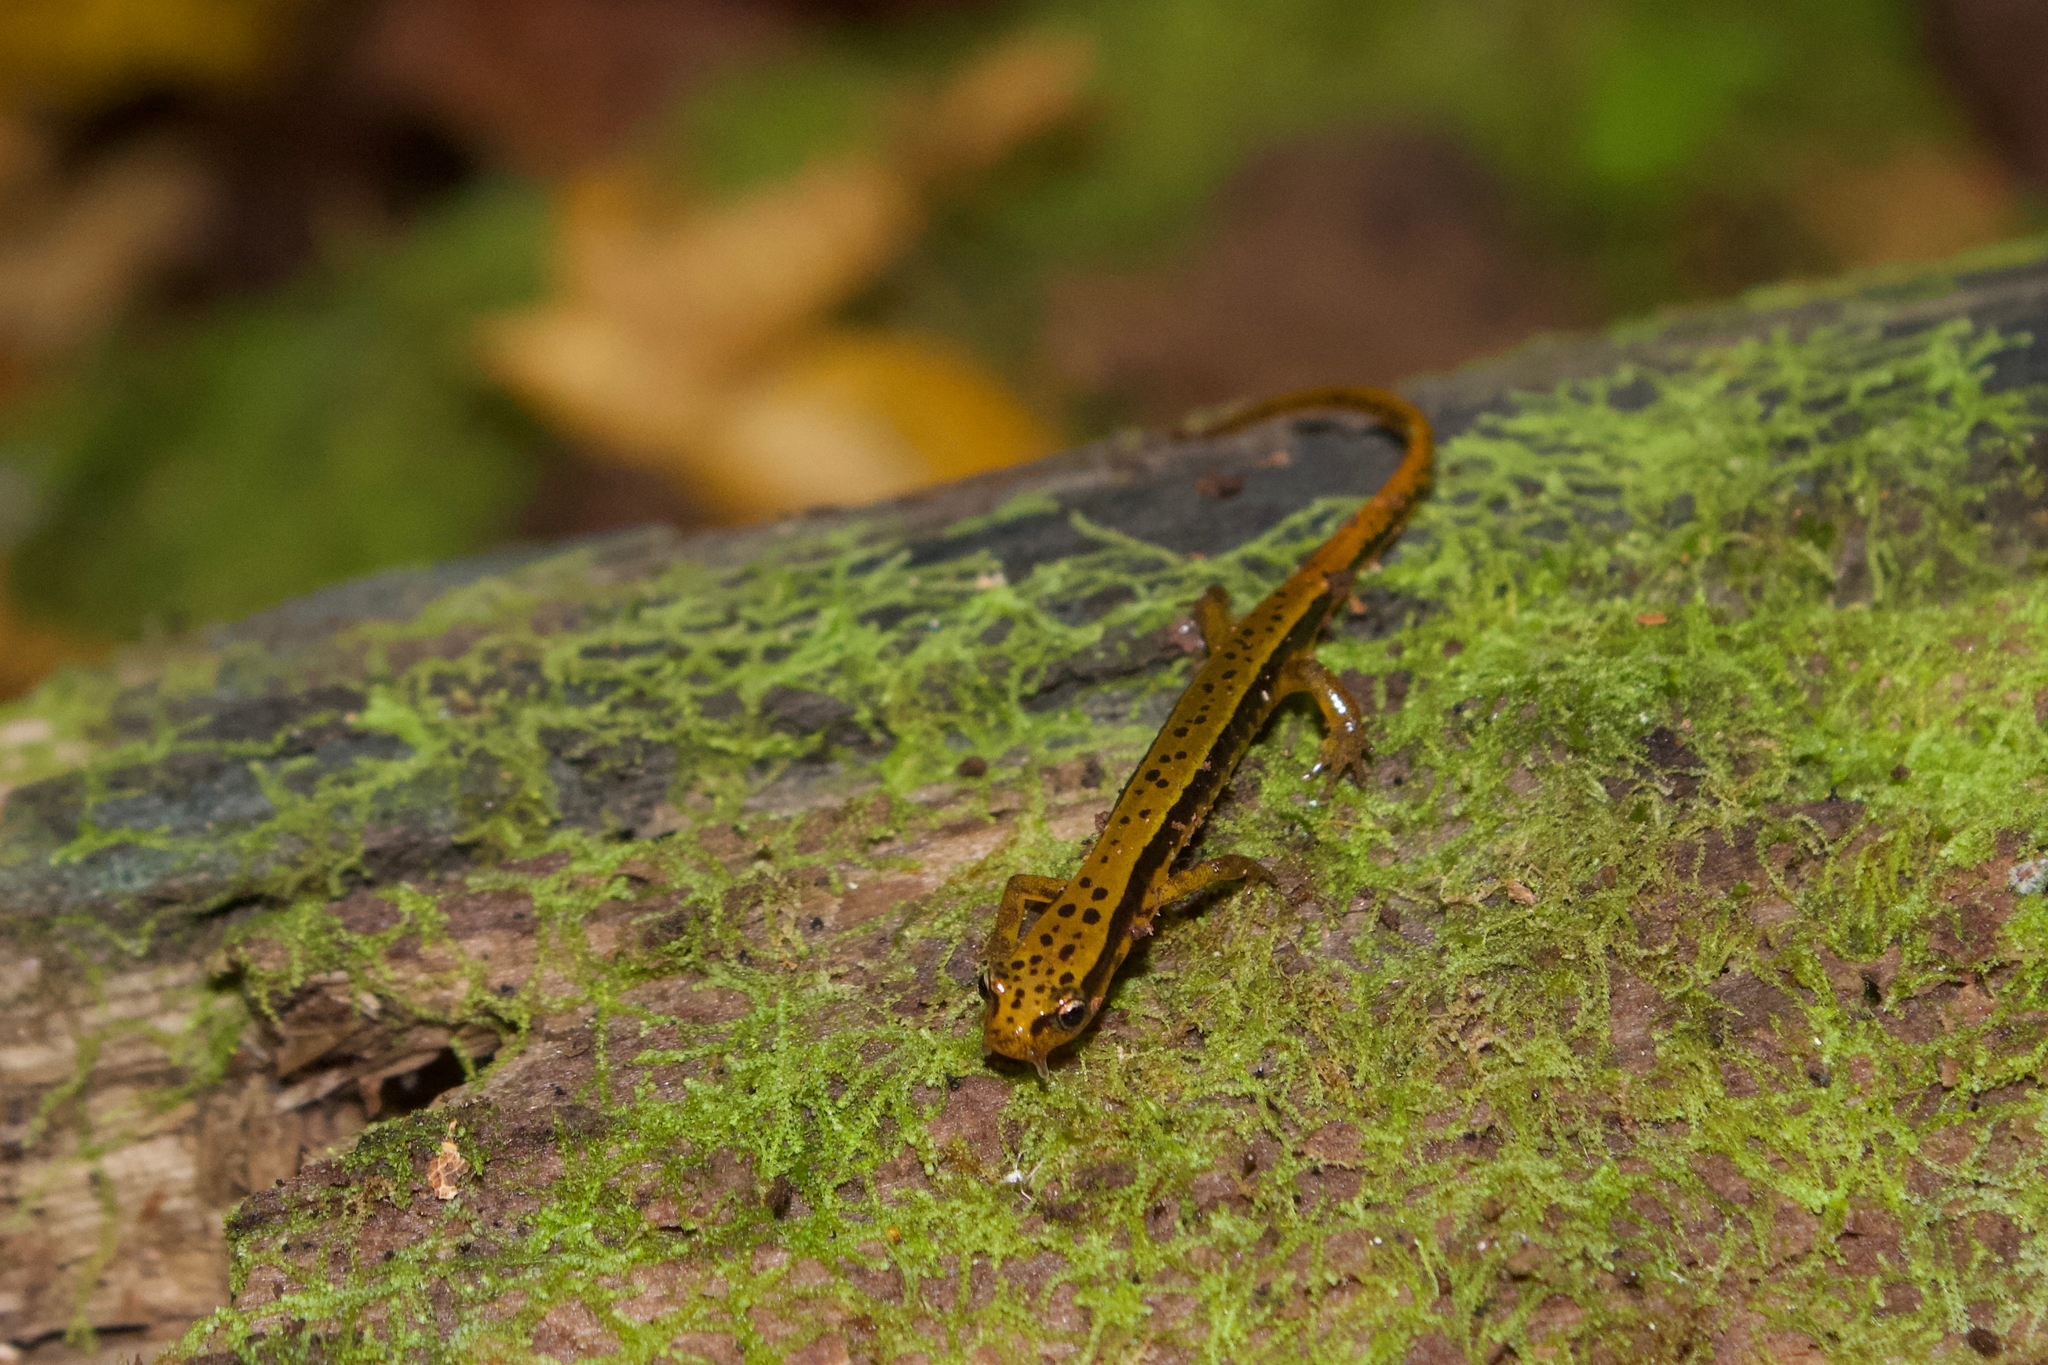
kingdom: Animalia
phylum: Chordata
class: Amphibia
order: Caudata
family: Plethodontidae
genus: Eurycea
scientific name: Eurycea wilderae
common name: Blue ridge two-lined salamander
